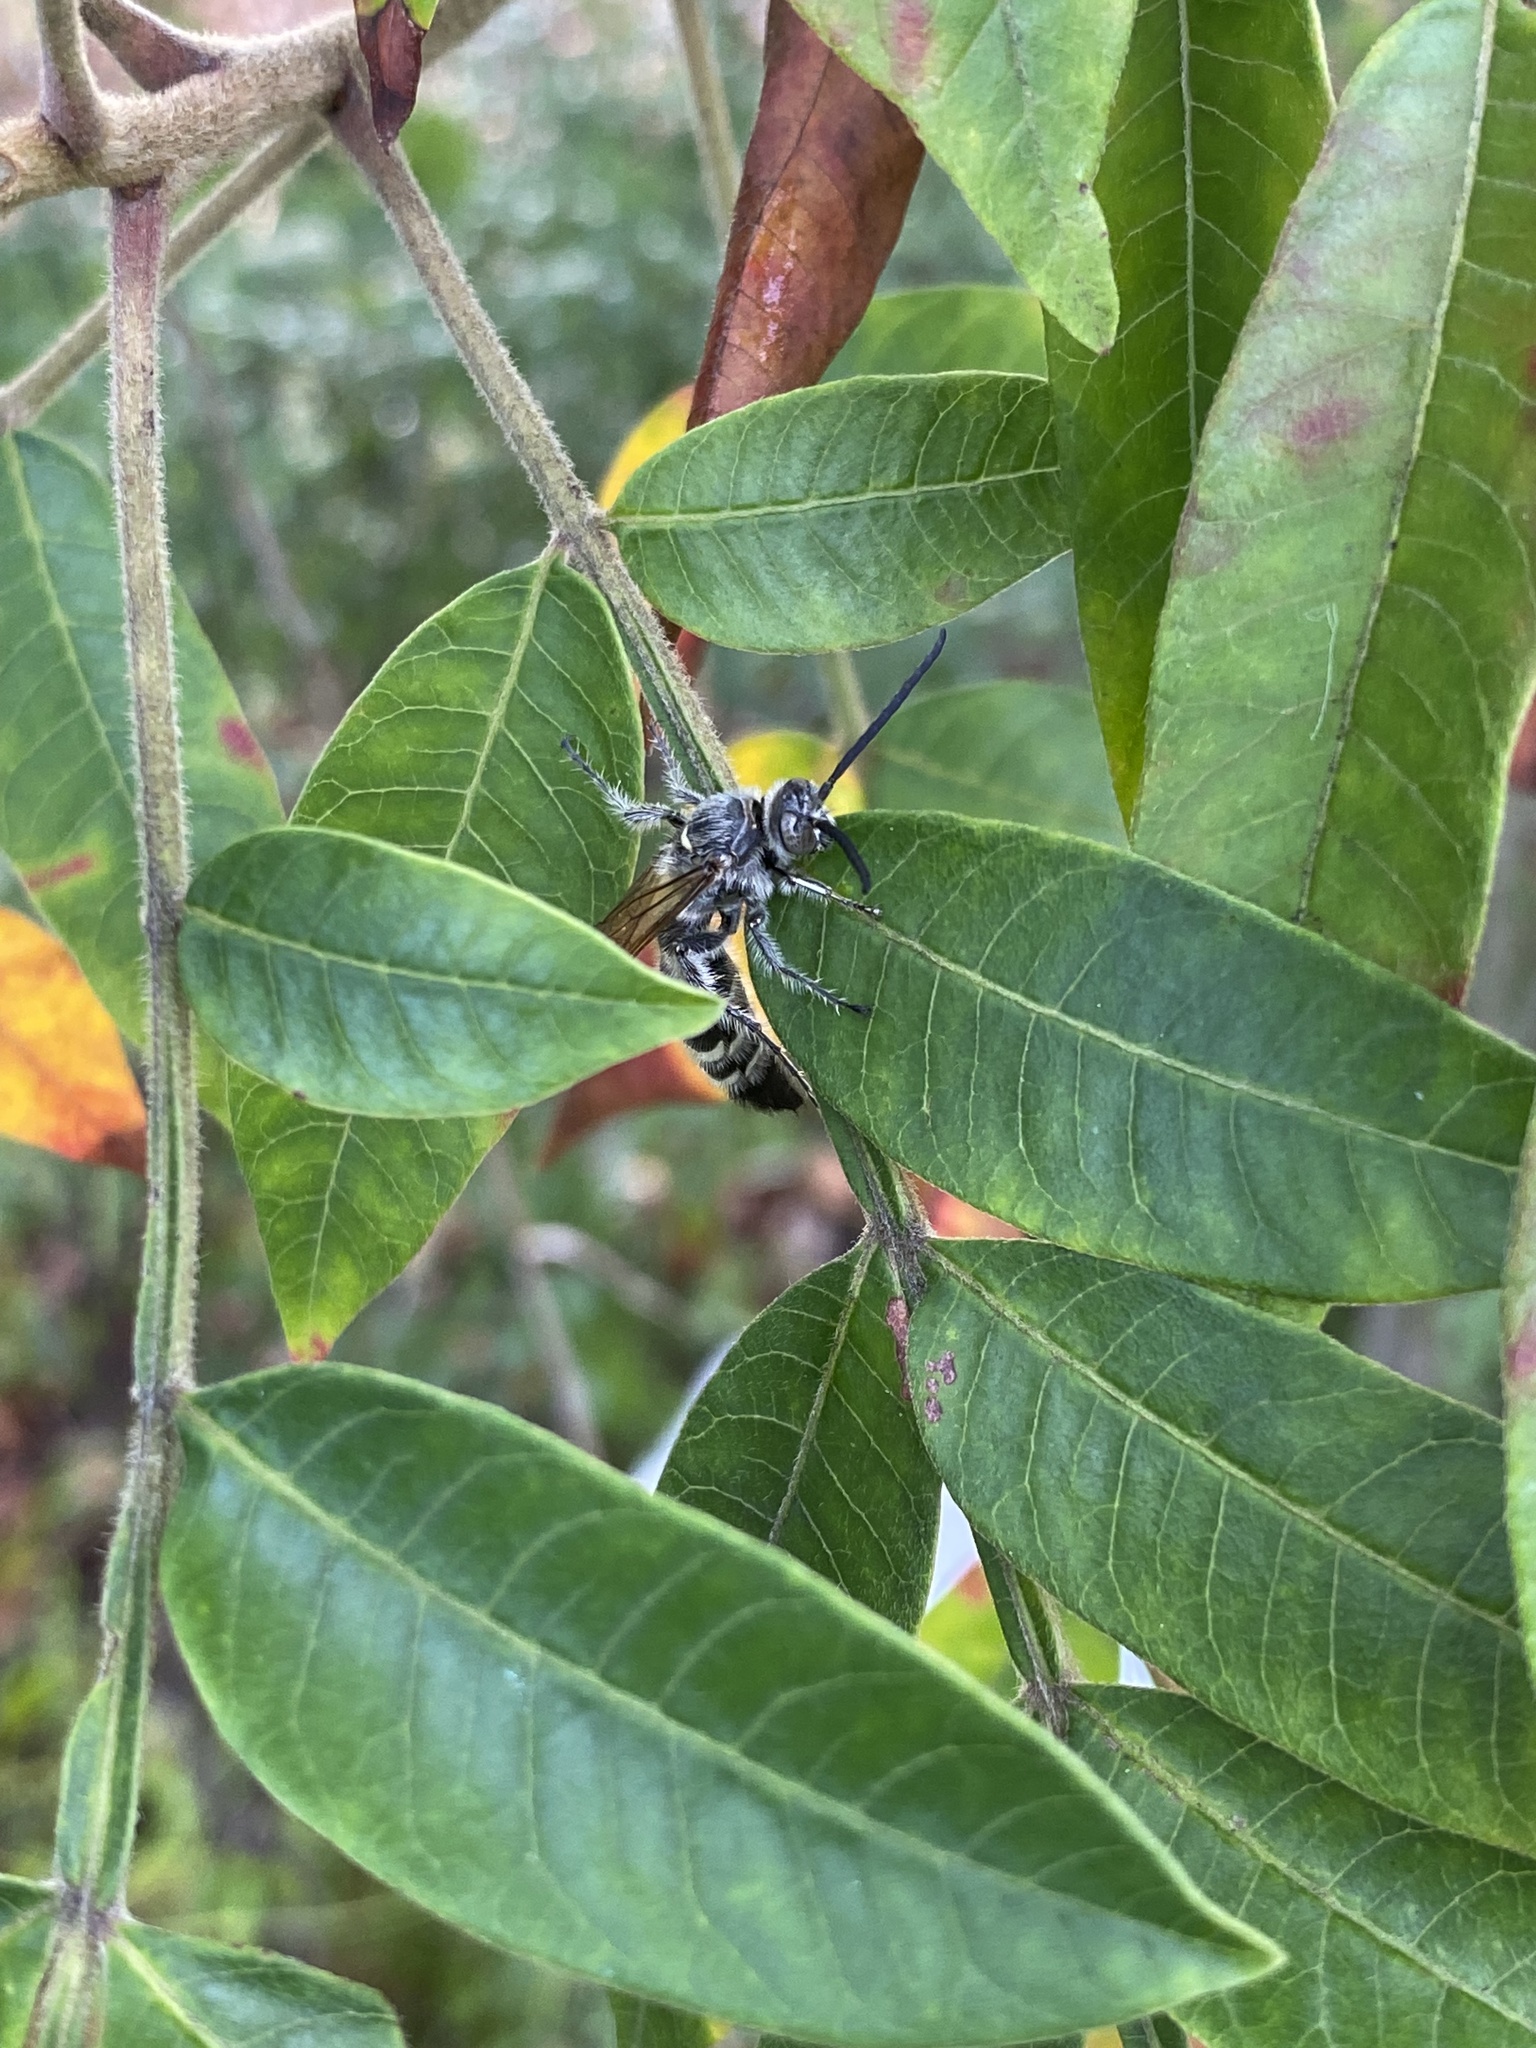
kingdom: Animalia
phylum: Arthropoda
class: Insecta
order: Hymenoptera
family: Scoliidae
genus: Dielis
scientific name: Dielis
